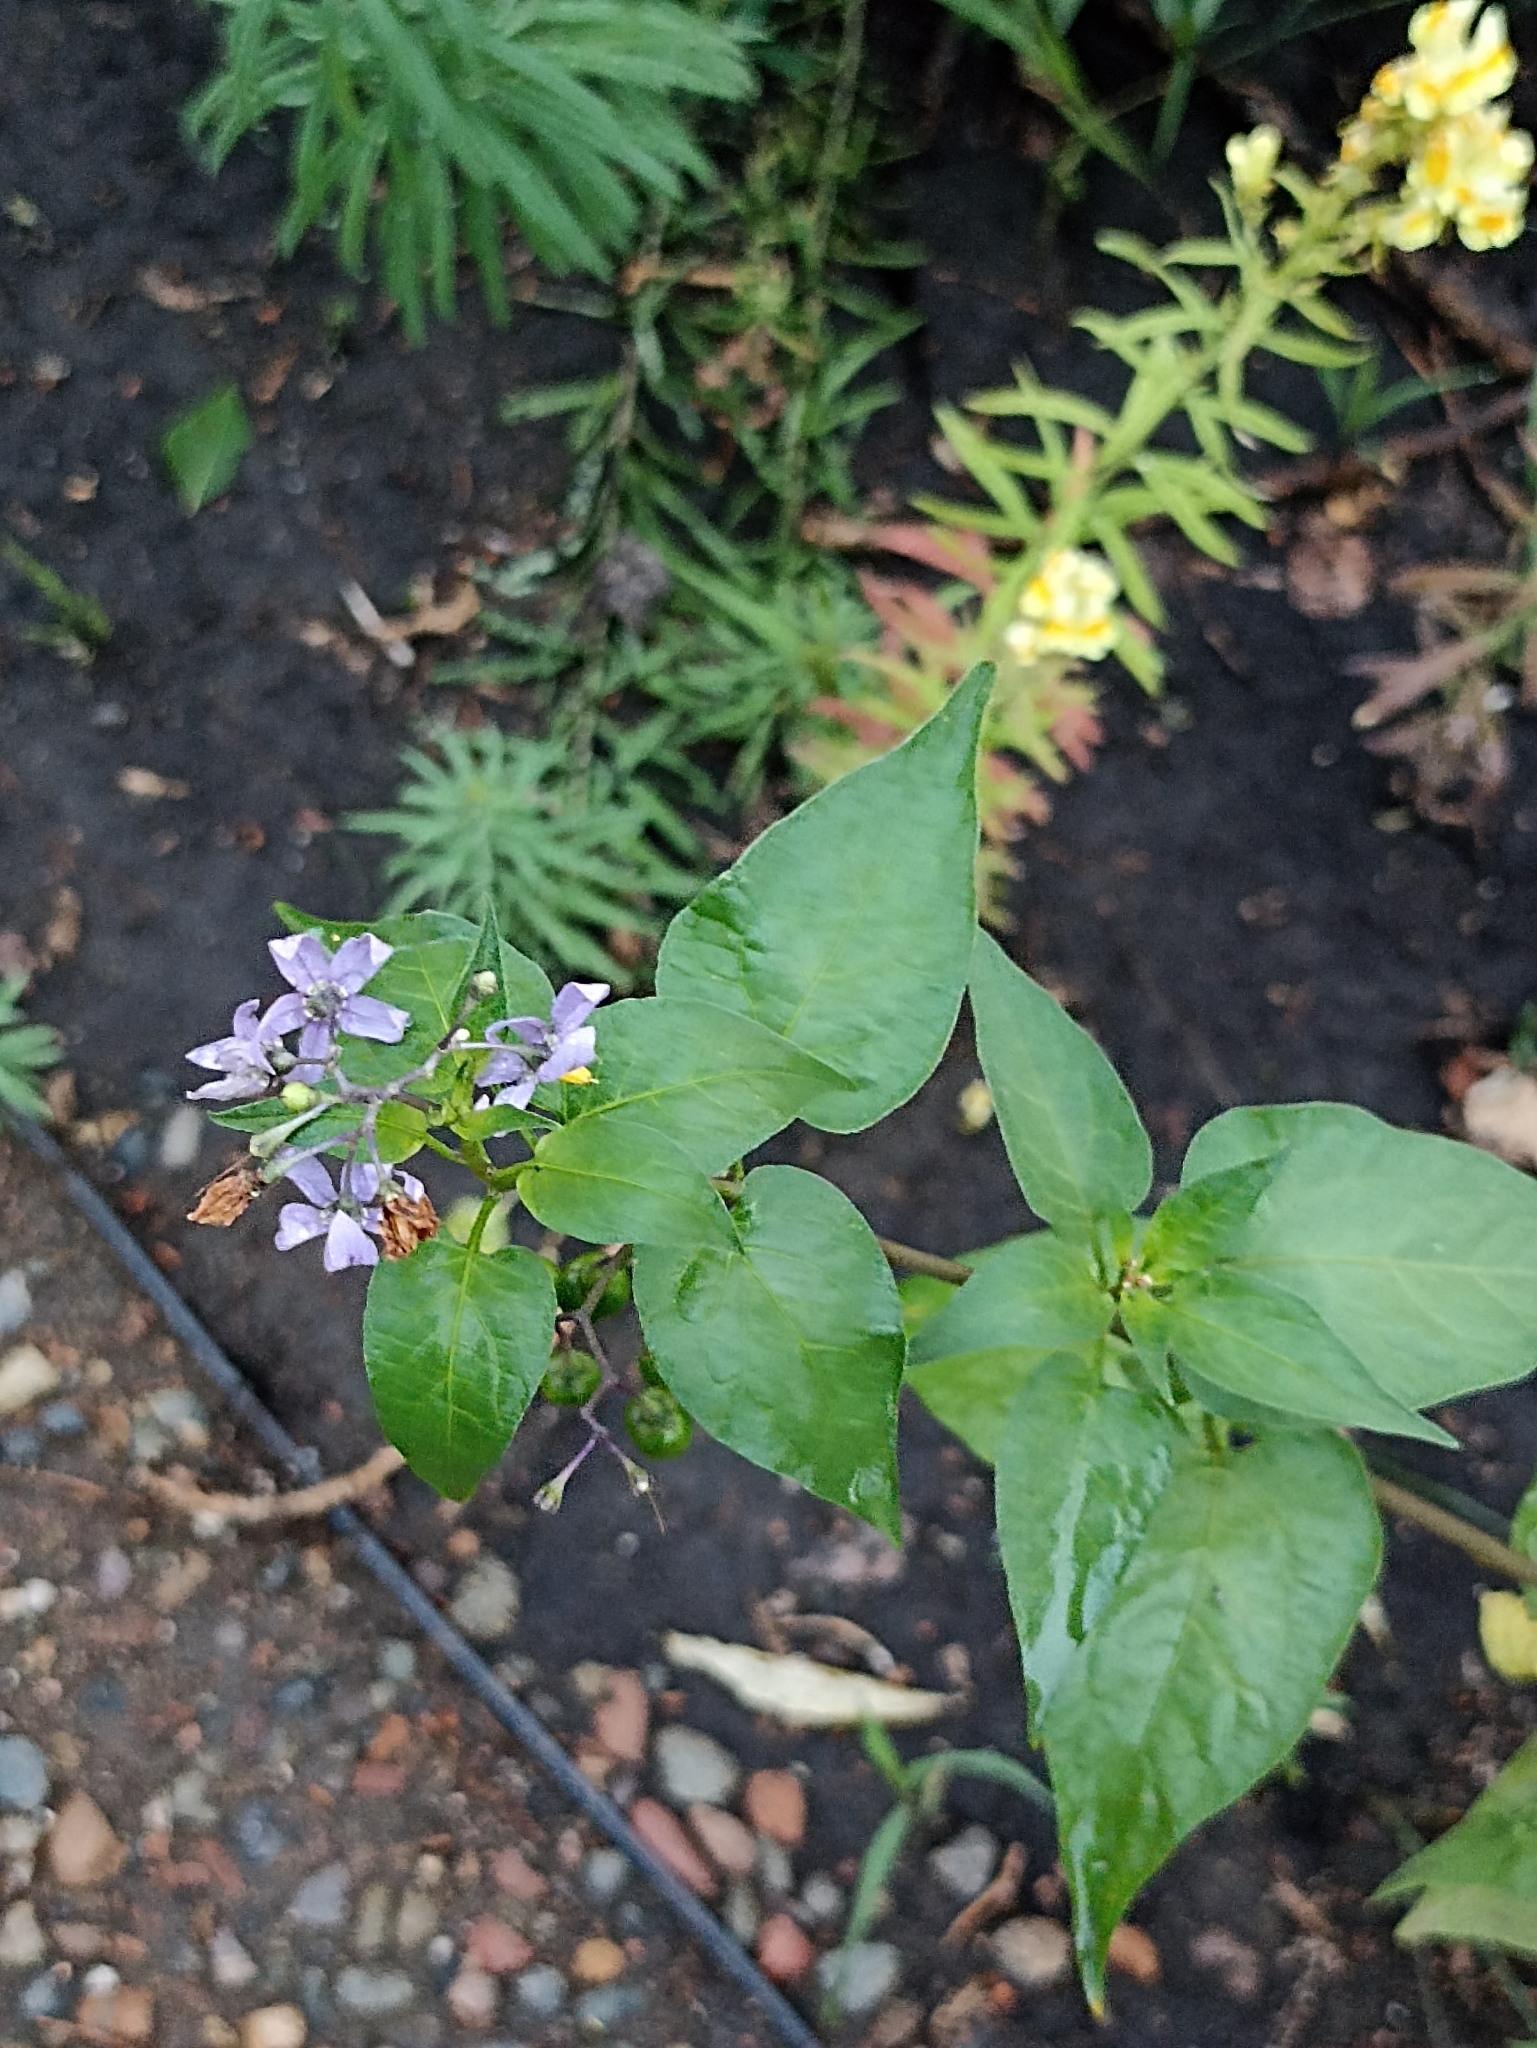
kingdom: Plantae
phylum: Tracheophyta
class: Magnoliopsida
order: Solanales
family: Solanaceae
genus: Solanum
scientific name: Solanum dulcamara
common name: Climbing nightshade
